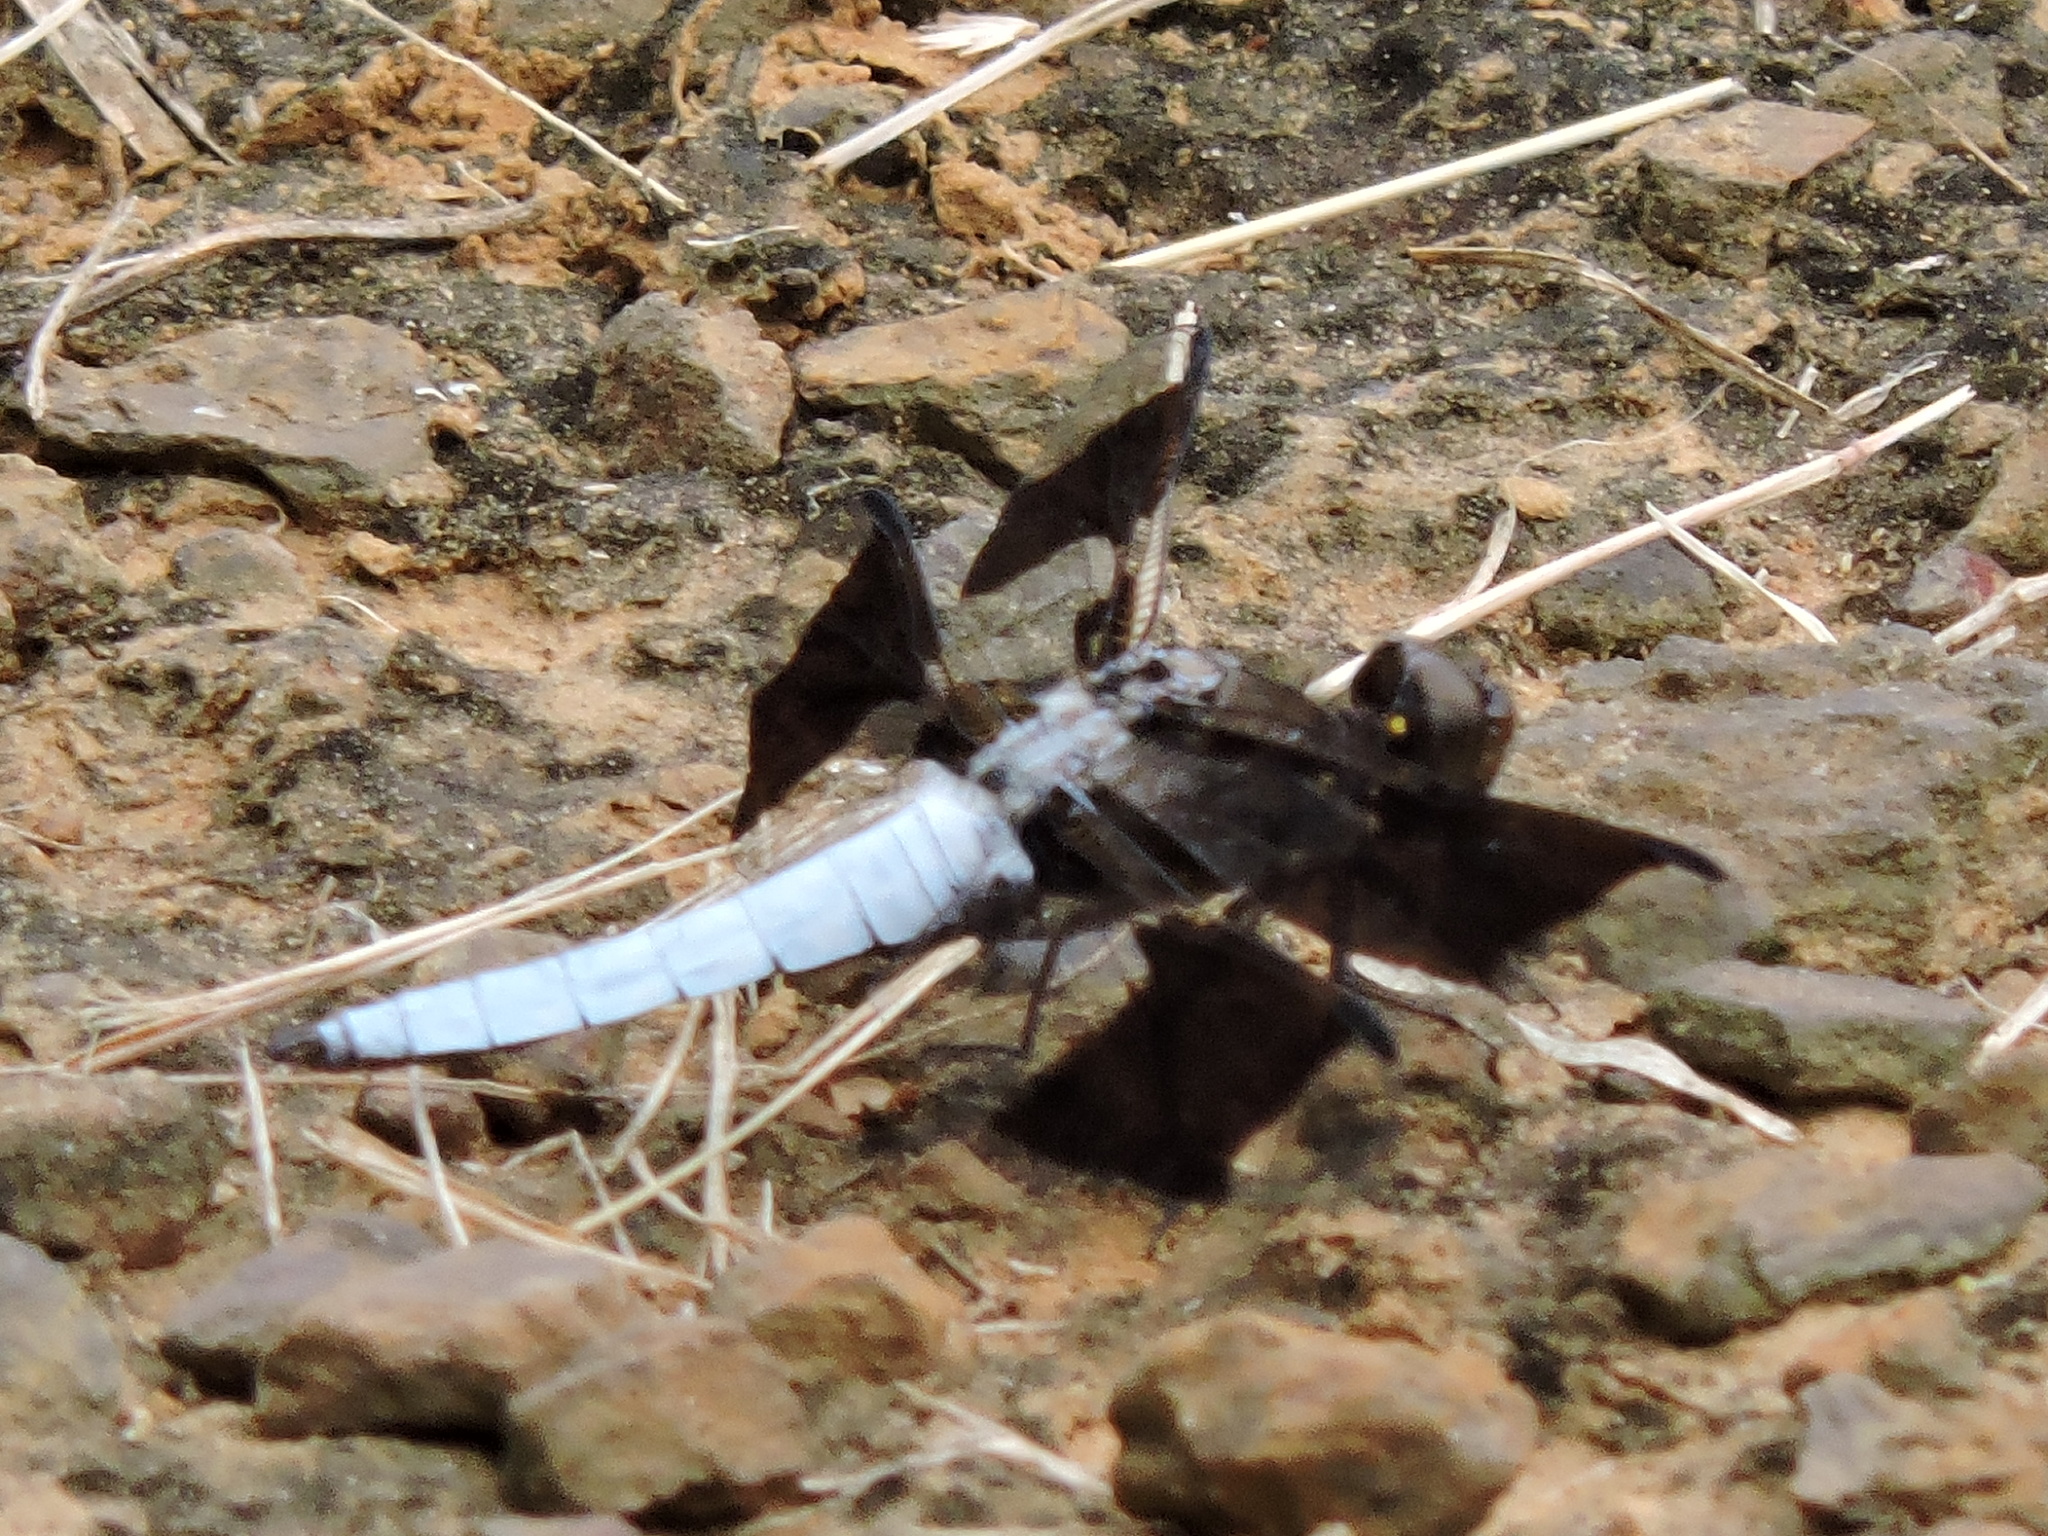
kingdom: Animalia
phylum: Arthropoda
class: Insecta
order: Odonata
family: Libellulidae
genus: Plathemis
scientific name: Plathemis lydia
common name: Common whitetail
